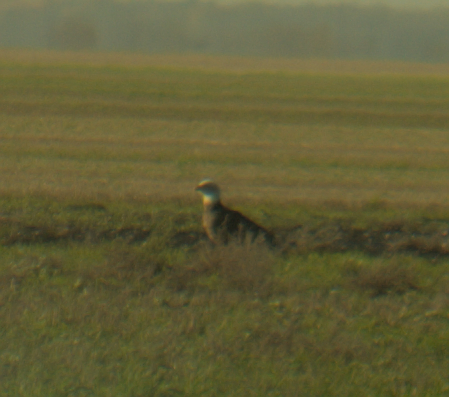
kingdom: Animalia
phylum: Chordata
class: Aves
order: Accipitriformes
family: Accipitridae
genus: Haliaeetus
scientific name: Haliaeetus leucocephalus
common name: Bald eagle
